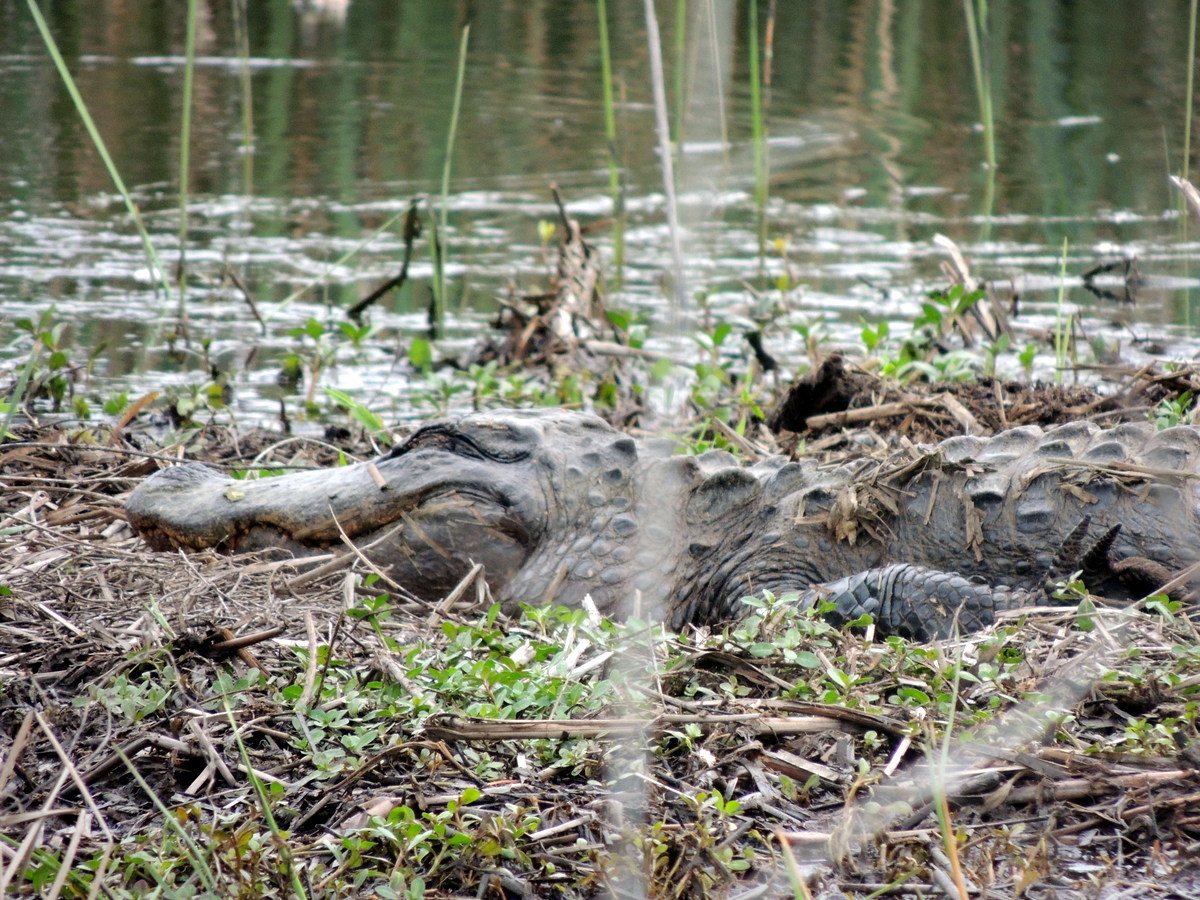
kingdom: Animalia
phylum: Chordata
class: Crocodylia
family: Alligatoridae
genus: Alligator
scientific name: Alligator mississippiensis
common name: American alligator
